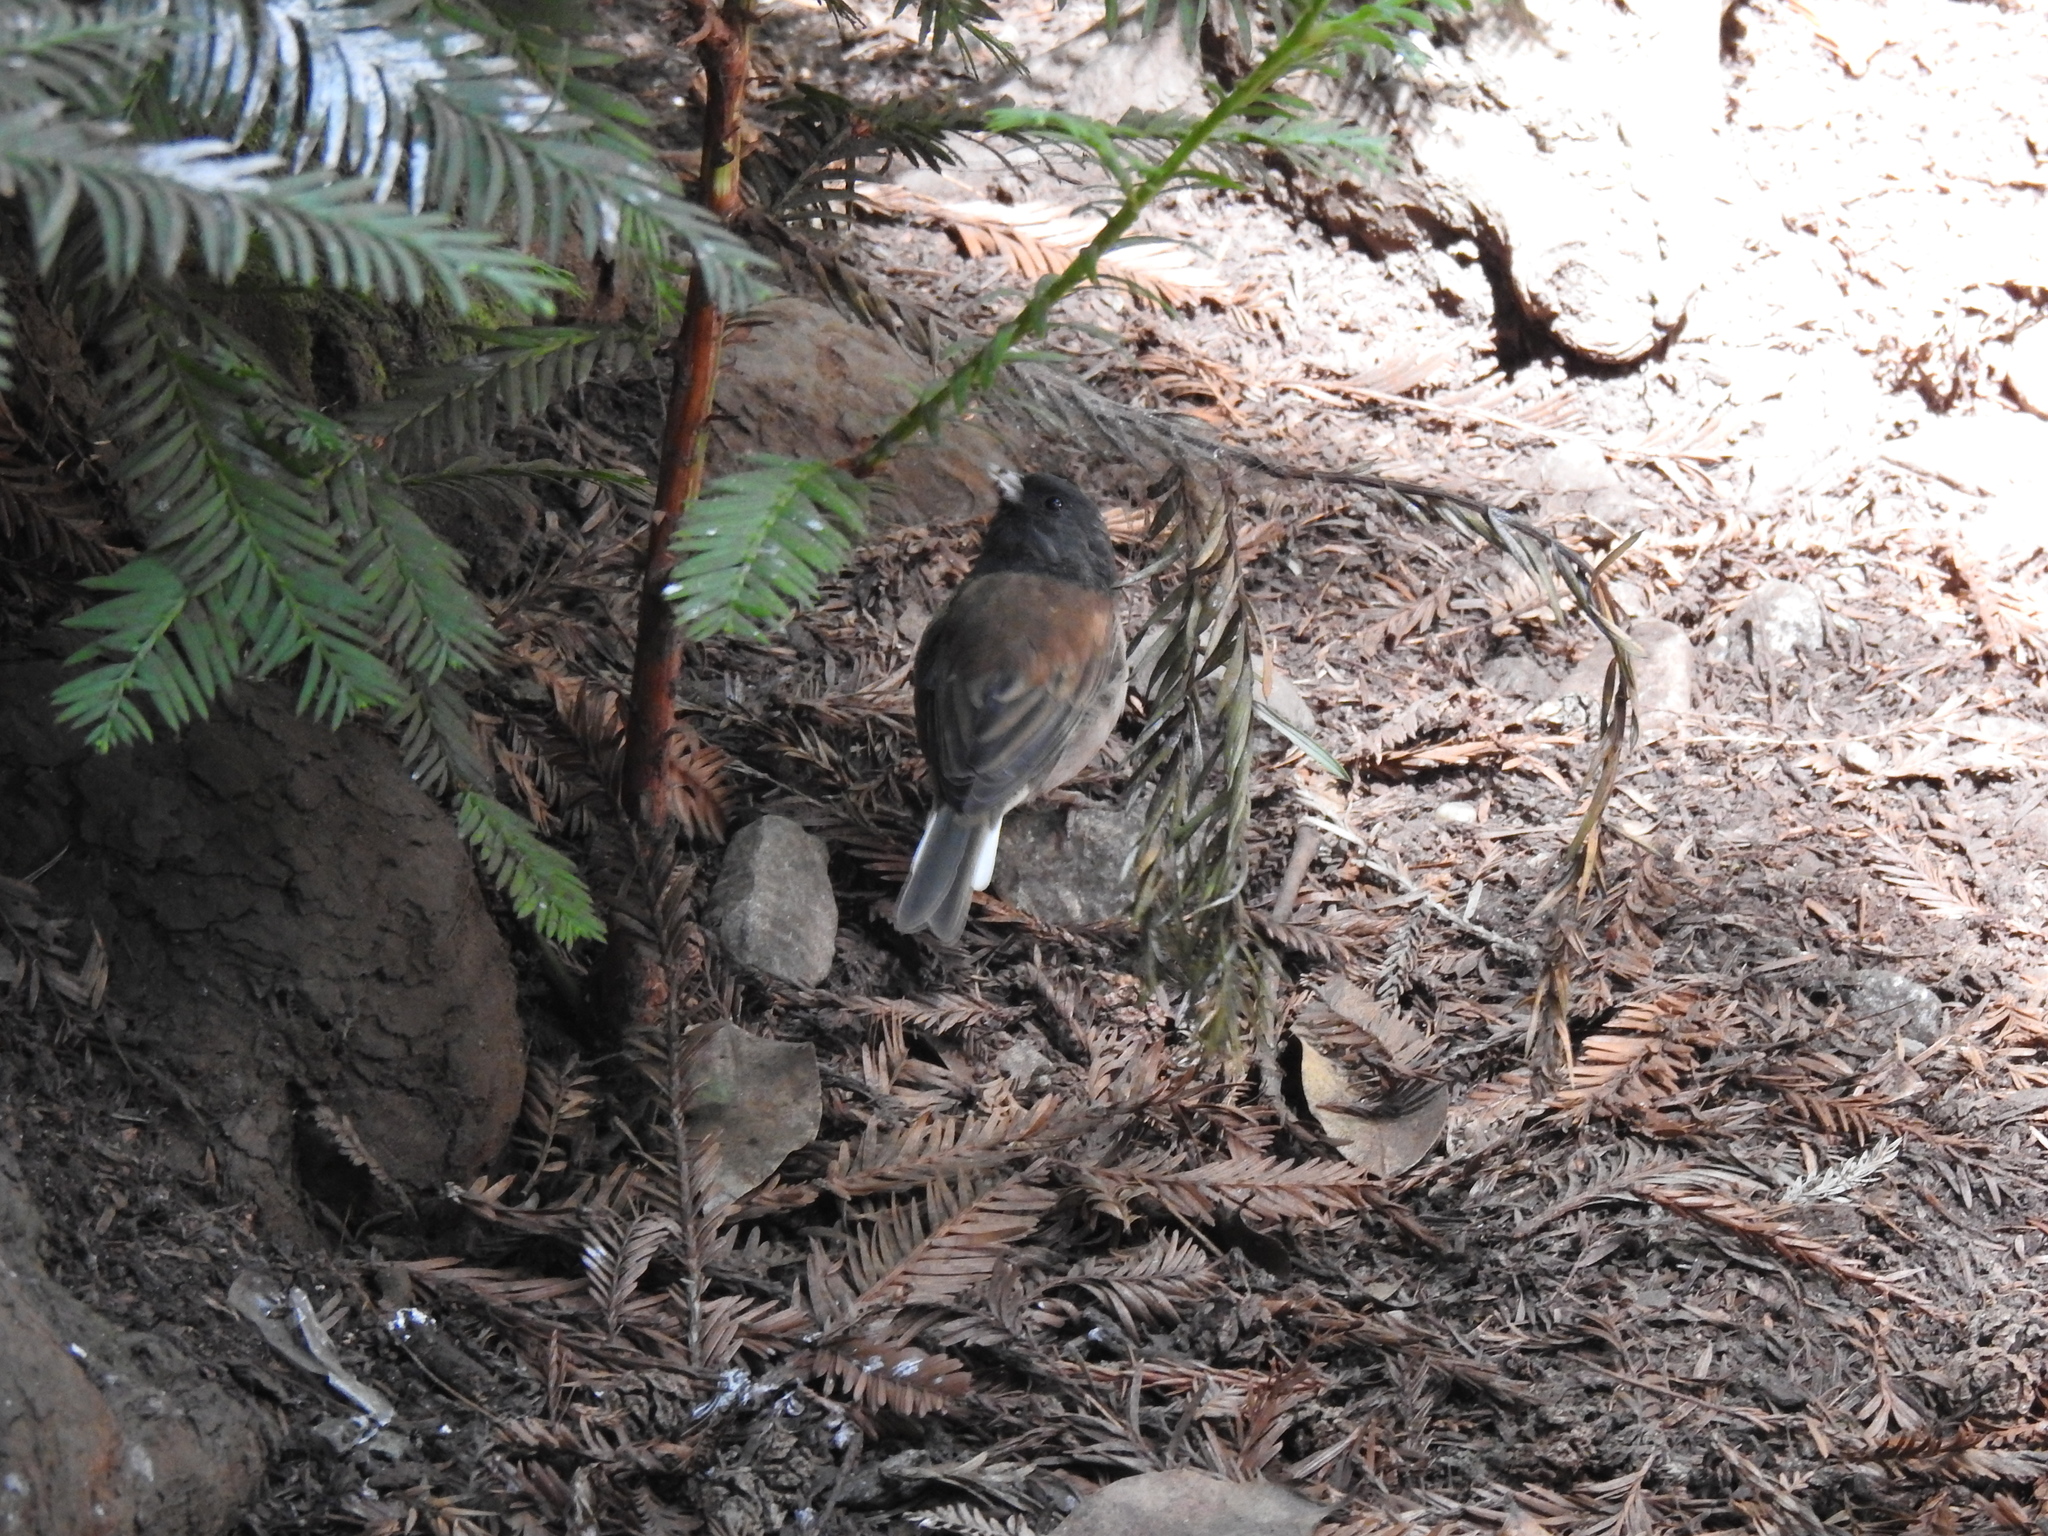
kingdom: Animalia
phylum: Chordata
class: Aves
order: Passeriformes
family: Passerellidae
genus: Junco
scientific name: Junco hyemalis
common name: Dark-eyed junco
